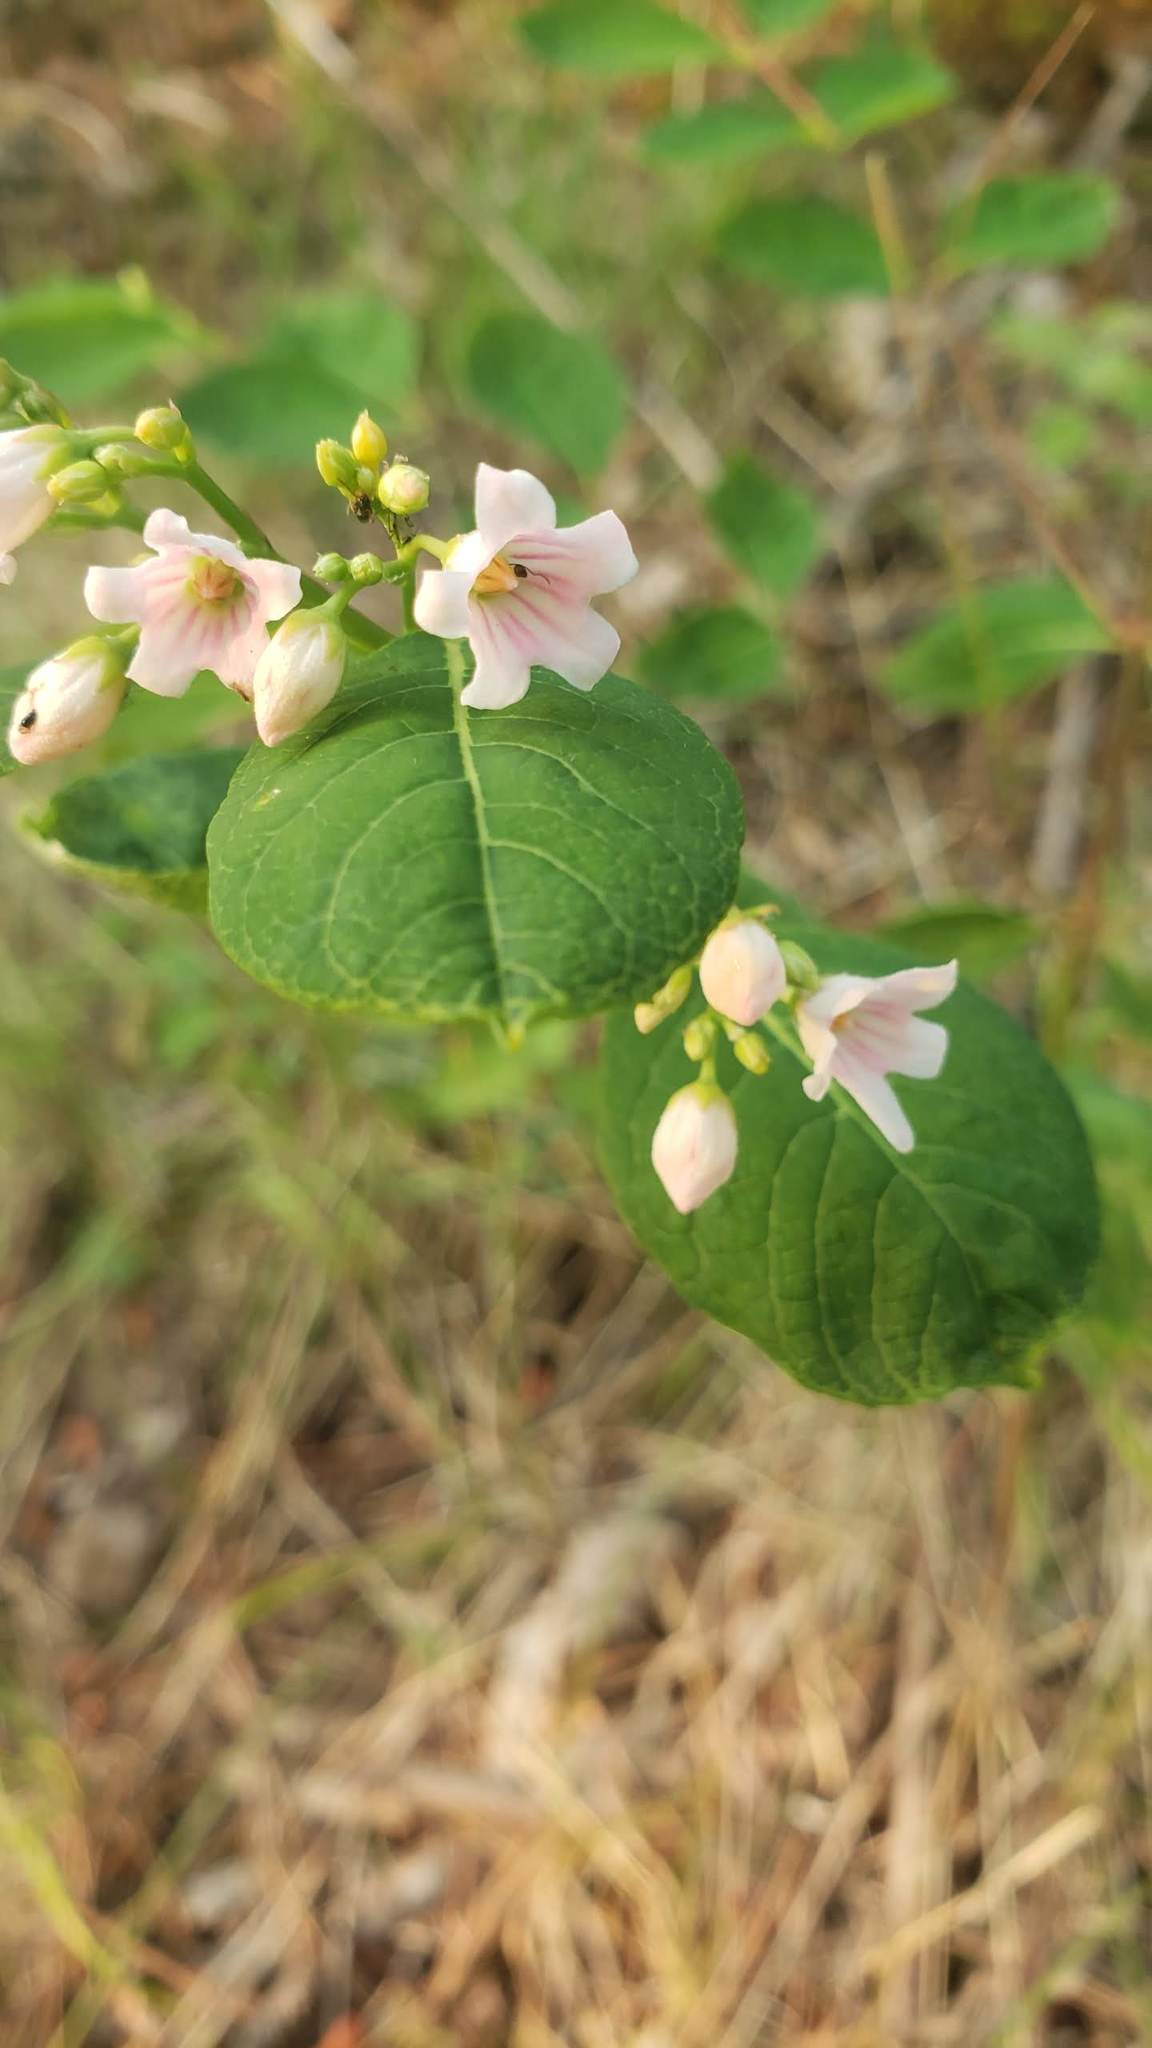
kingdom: Plantae
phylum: Tracheophyta
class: Magnoliopsida
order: Gentianales
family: Apocynaceae
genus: Apocynum
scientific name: Apocynum androsaemifolium
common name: Spreading dogbane
